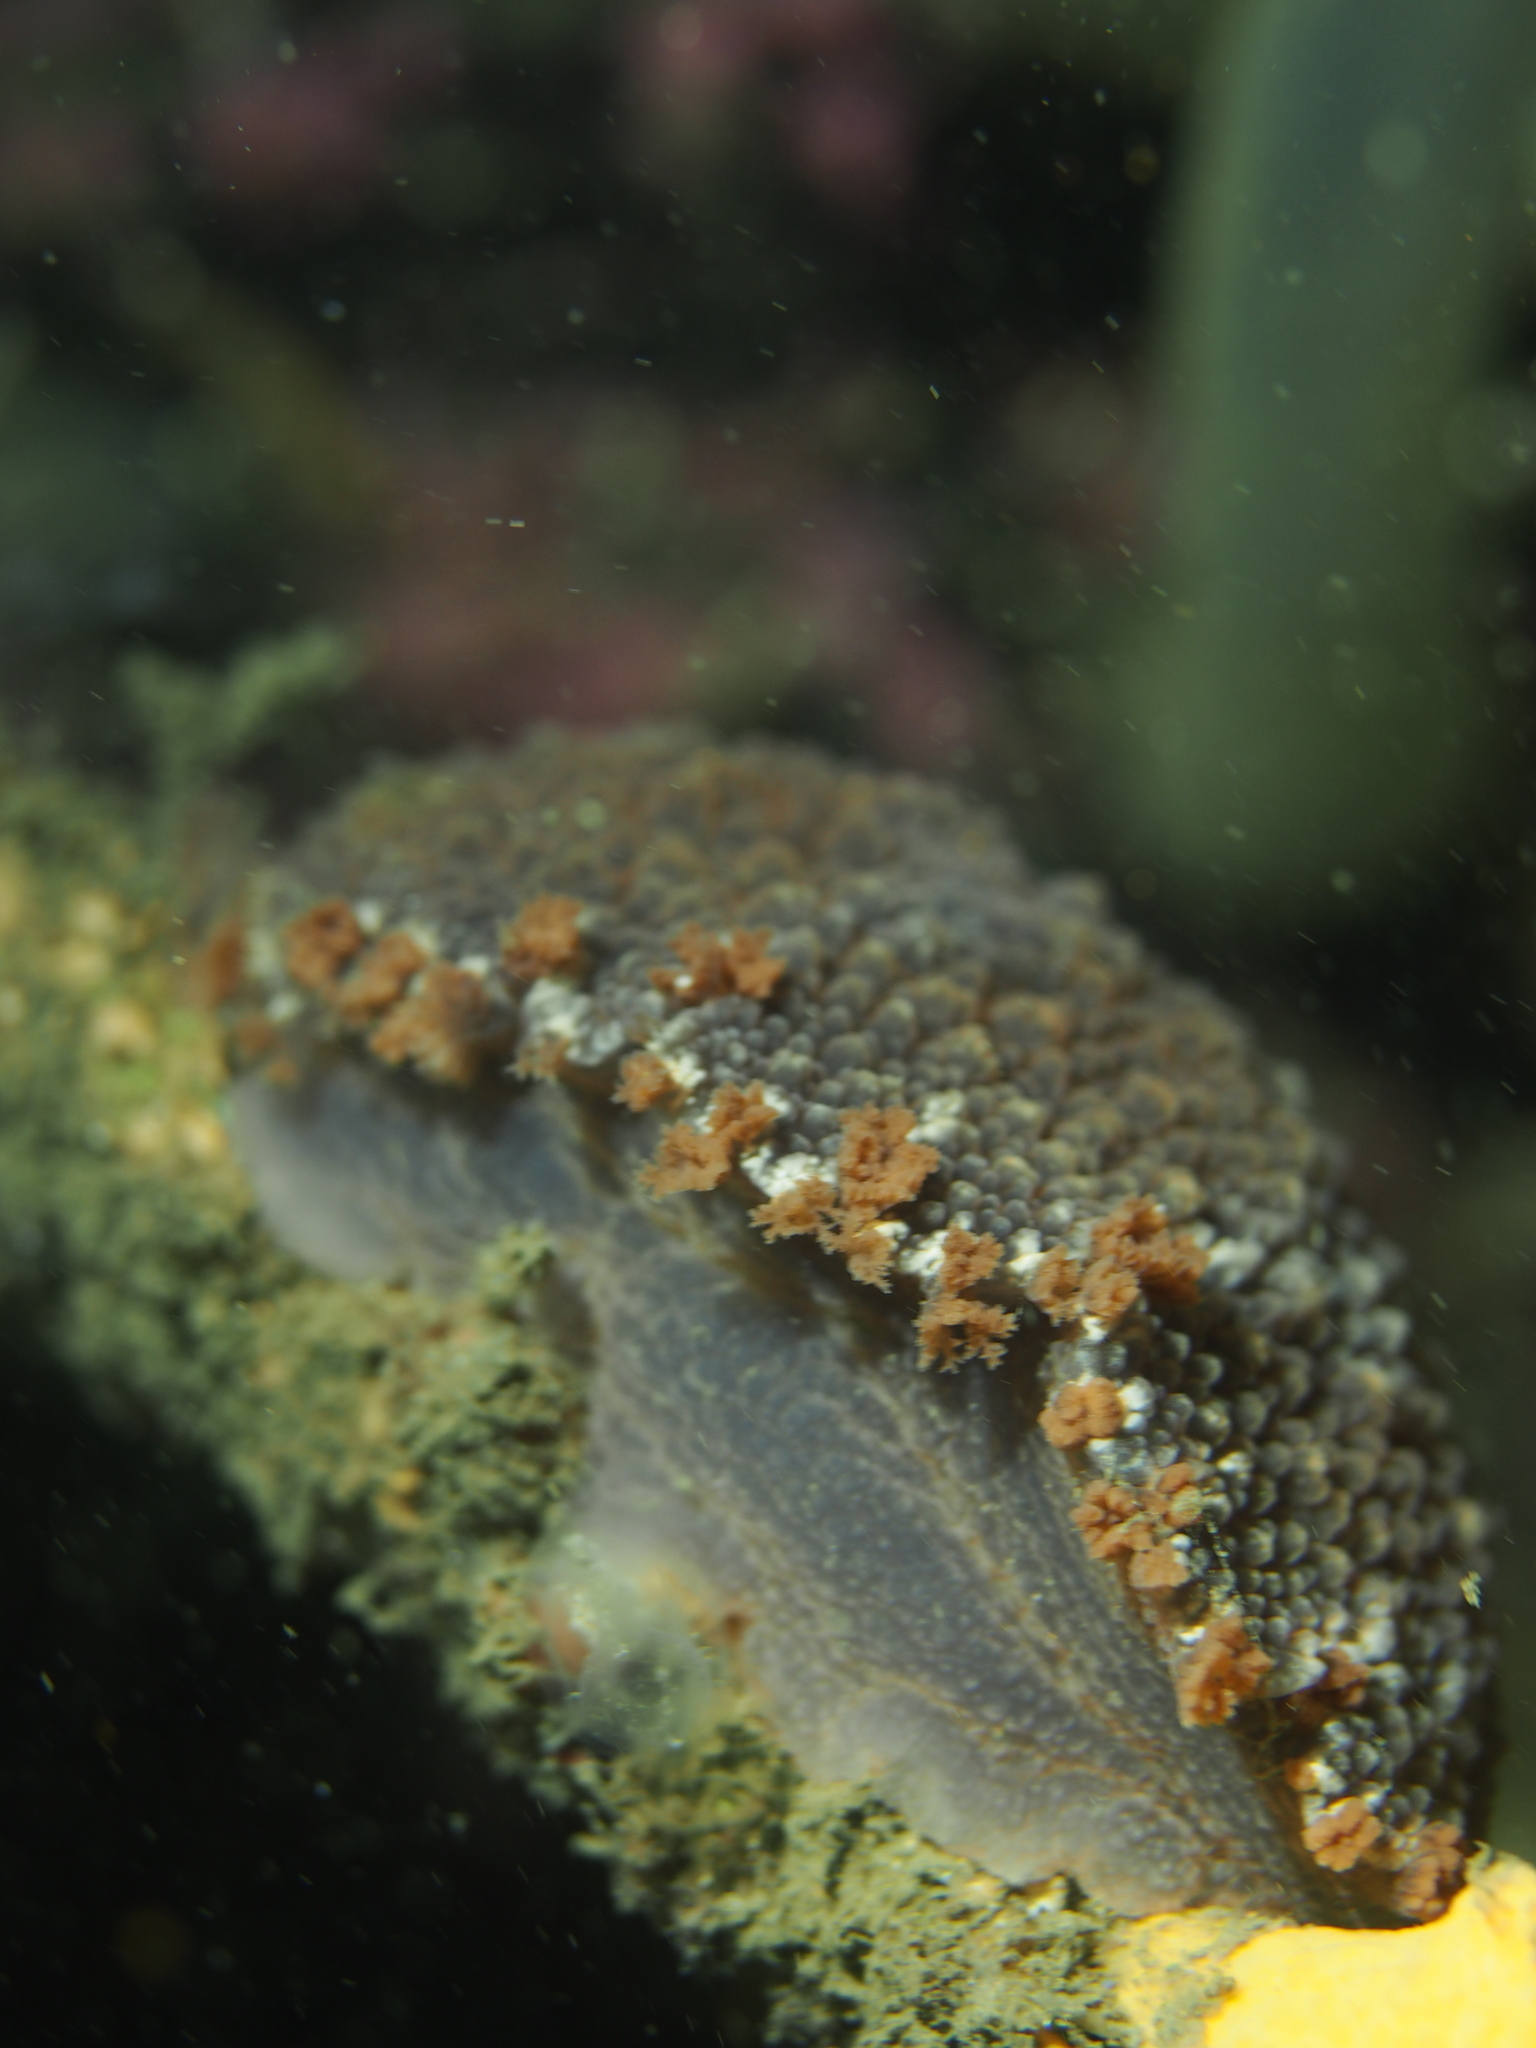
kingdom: Animalia
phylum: Mollusca
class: Gastropoda
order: Nudibranchia
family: Tritoniidae
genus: Tritonia
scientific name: Tritonia hombergii
